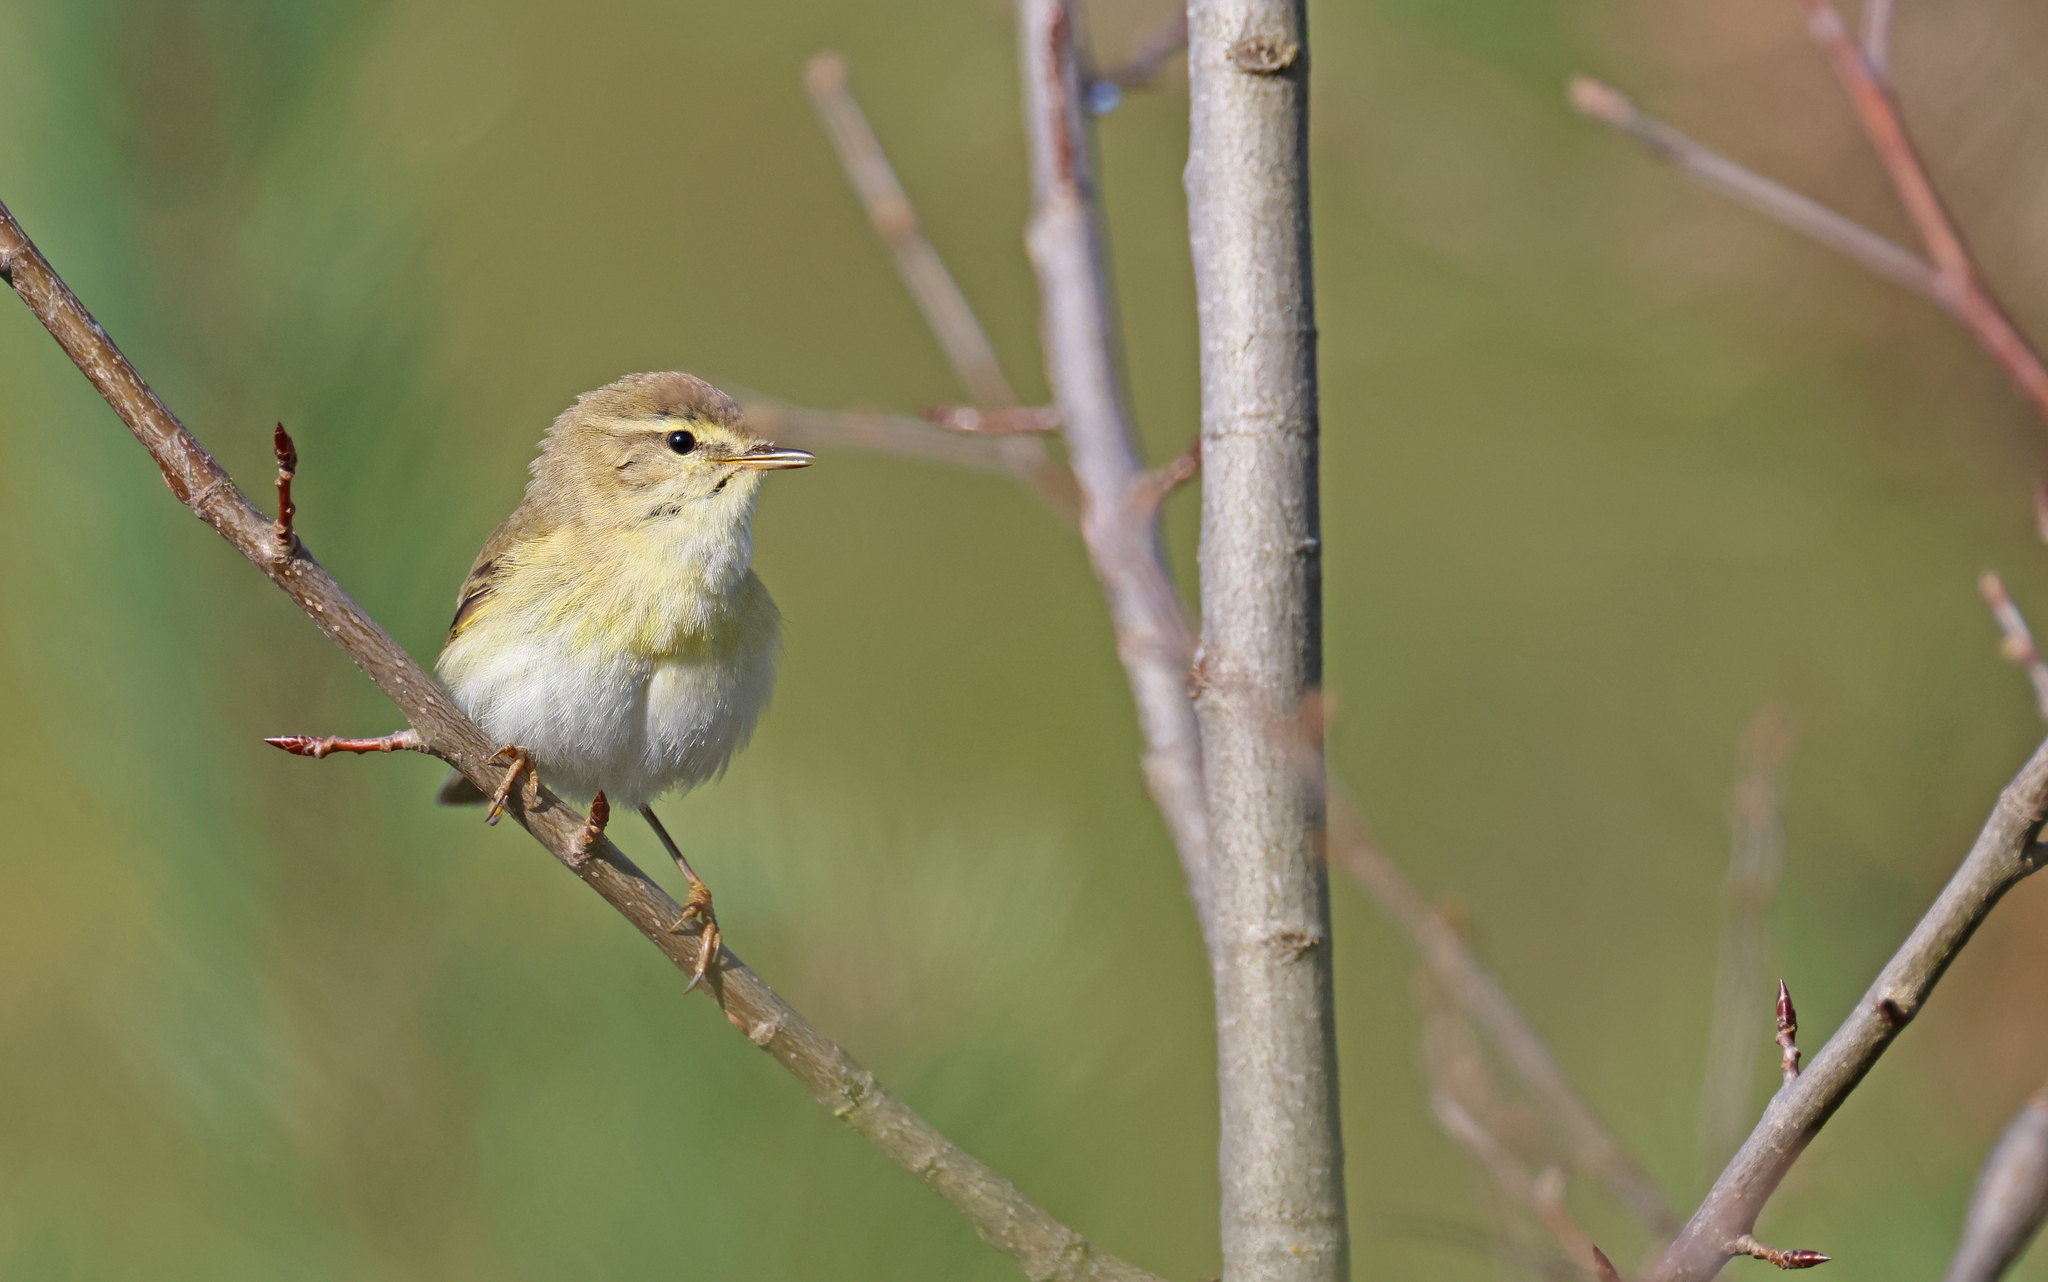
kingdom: Animalia
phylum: Chordata
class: Aves
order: Passeriformes
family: Phylloscopidae
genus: Phylloscopus
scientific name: Phylloscopus trochilus
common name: Willow warbler
